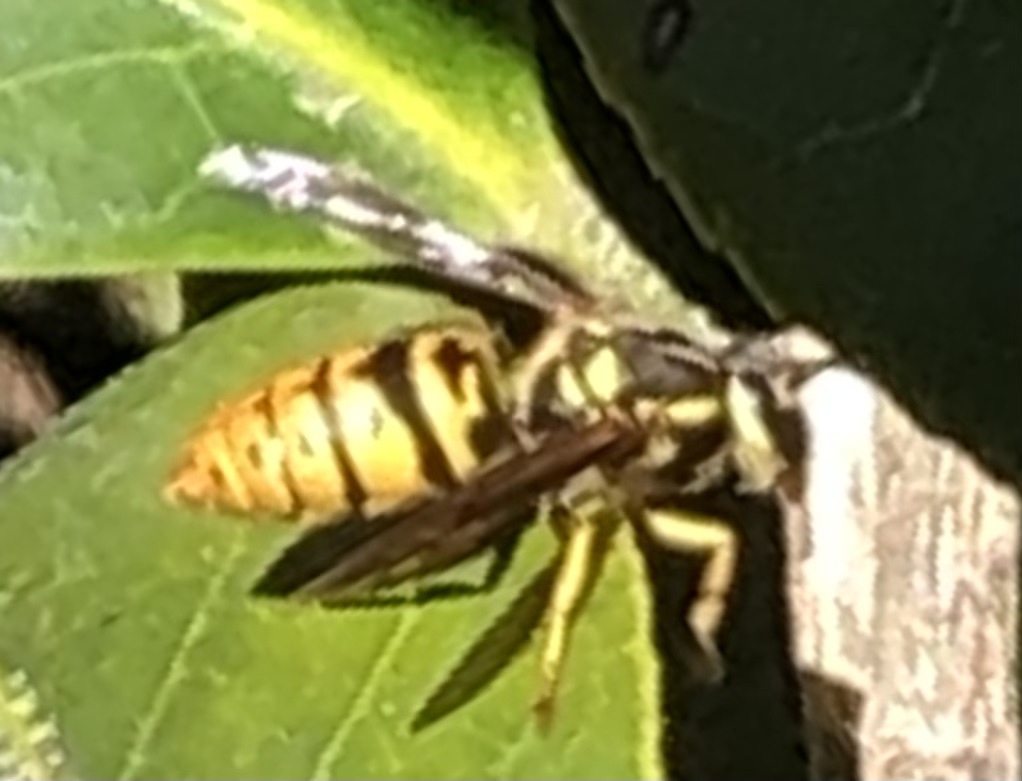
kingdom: Animalia
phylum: Arthropoda
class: Insecta
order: Hymenoptera
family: Vespidae
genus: Vespula
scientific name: Vespula maculifrons
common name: Eastern yellowjacket
